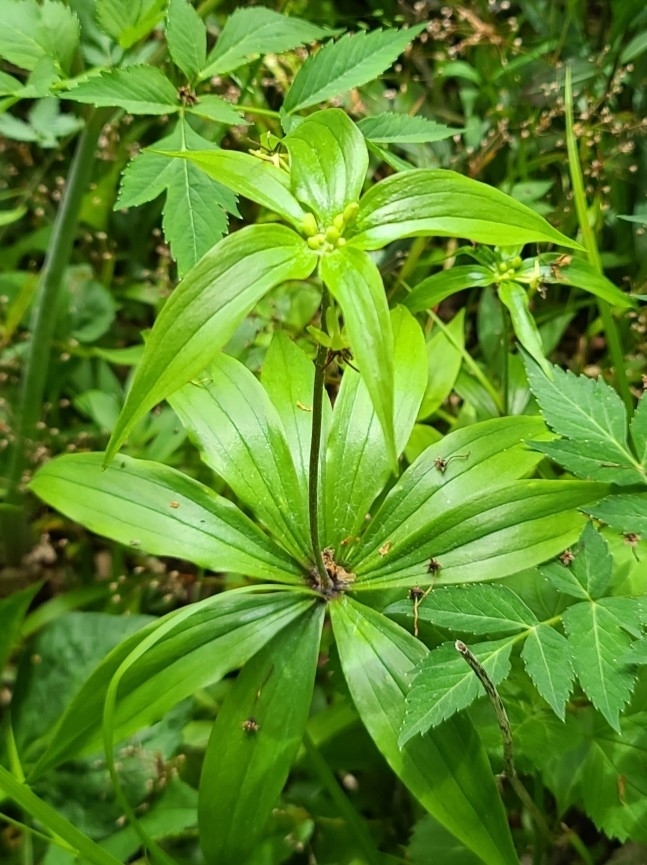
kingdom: Plantae
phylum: Tracheophyta
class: Liliopsida
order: Liliales
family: Liliaceae
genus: Medeola
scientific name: Medeola virginiana
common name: Indian cucumber-root
